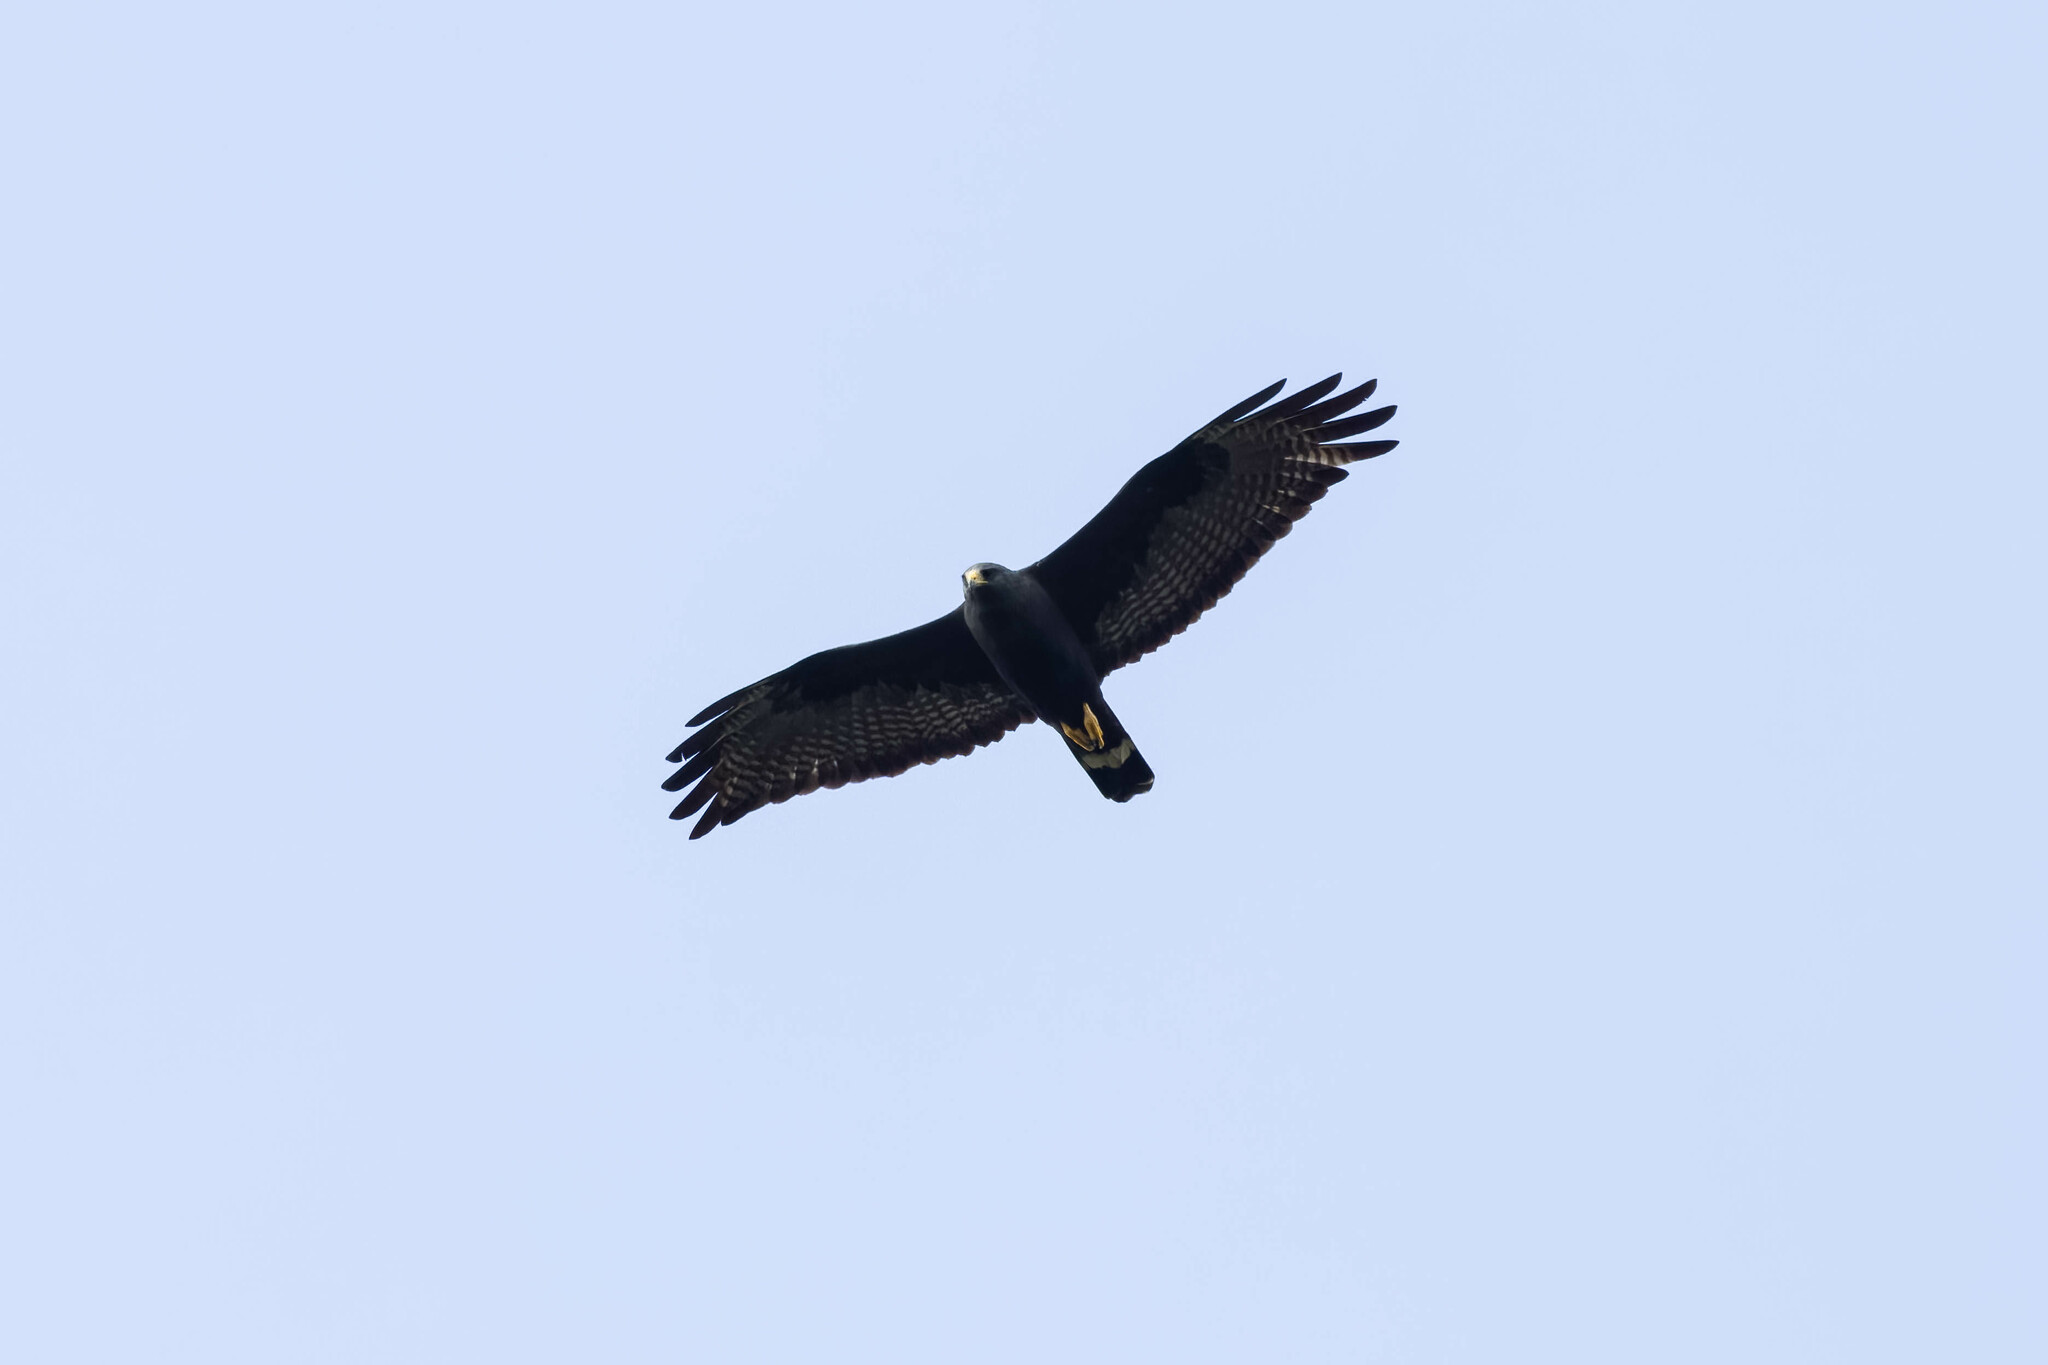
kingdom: Animalia
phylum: Chordata
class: Aves
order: Accipitriformes
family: Accipitridae
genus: Buteo
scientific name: Buteo albonotatus
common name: Zone-tailed hawk
